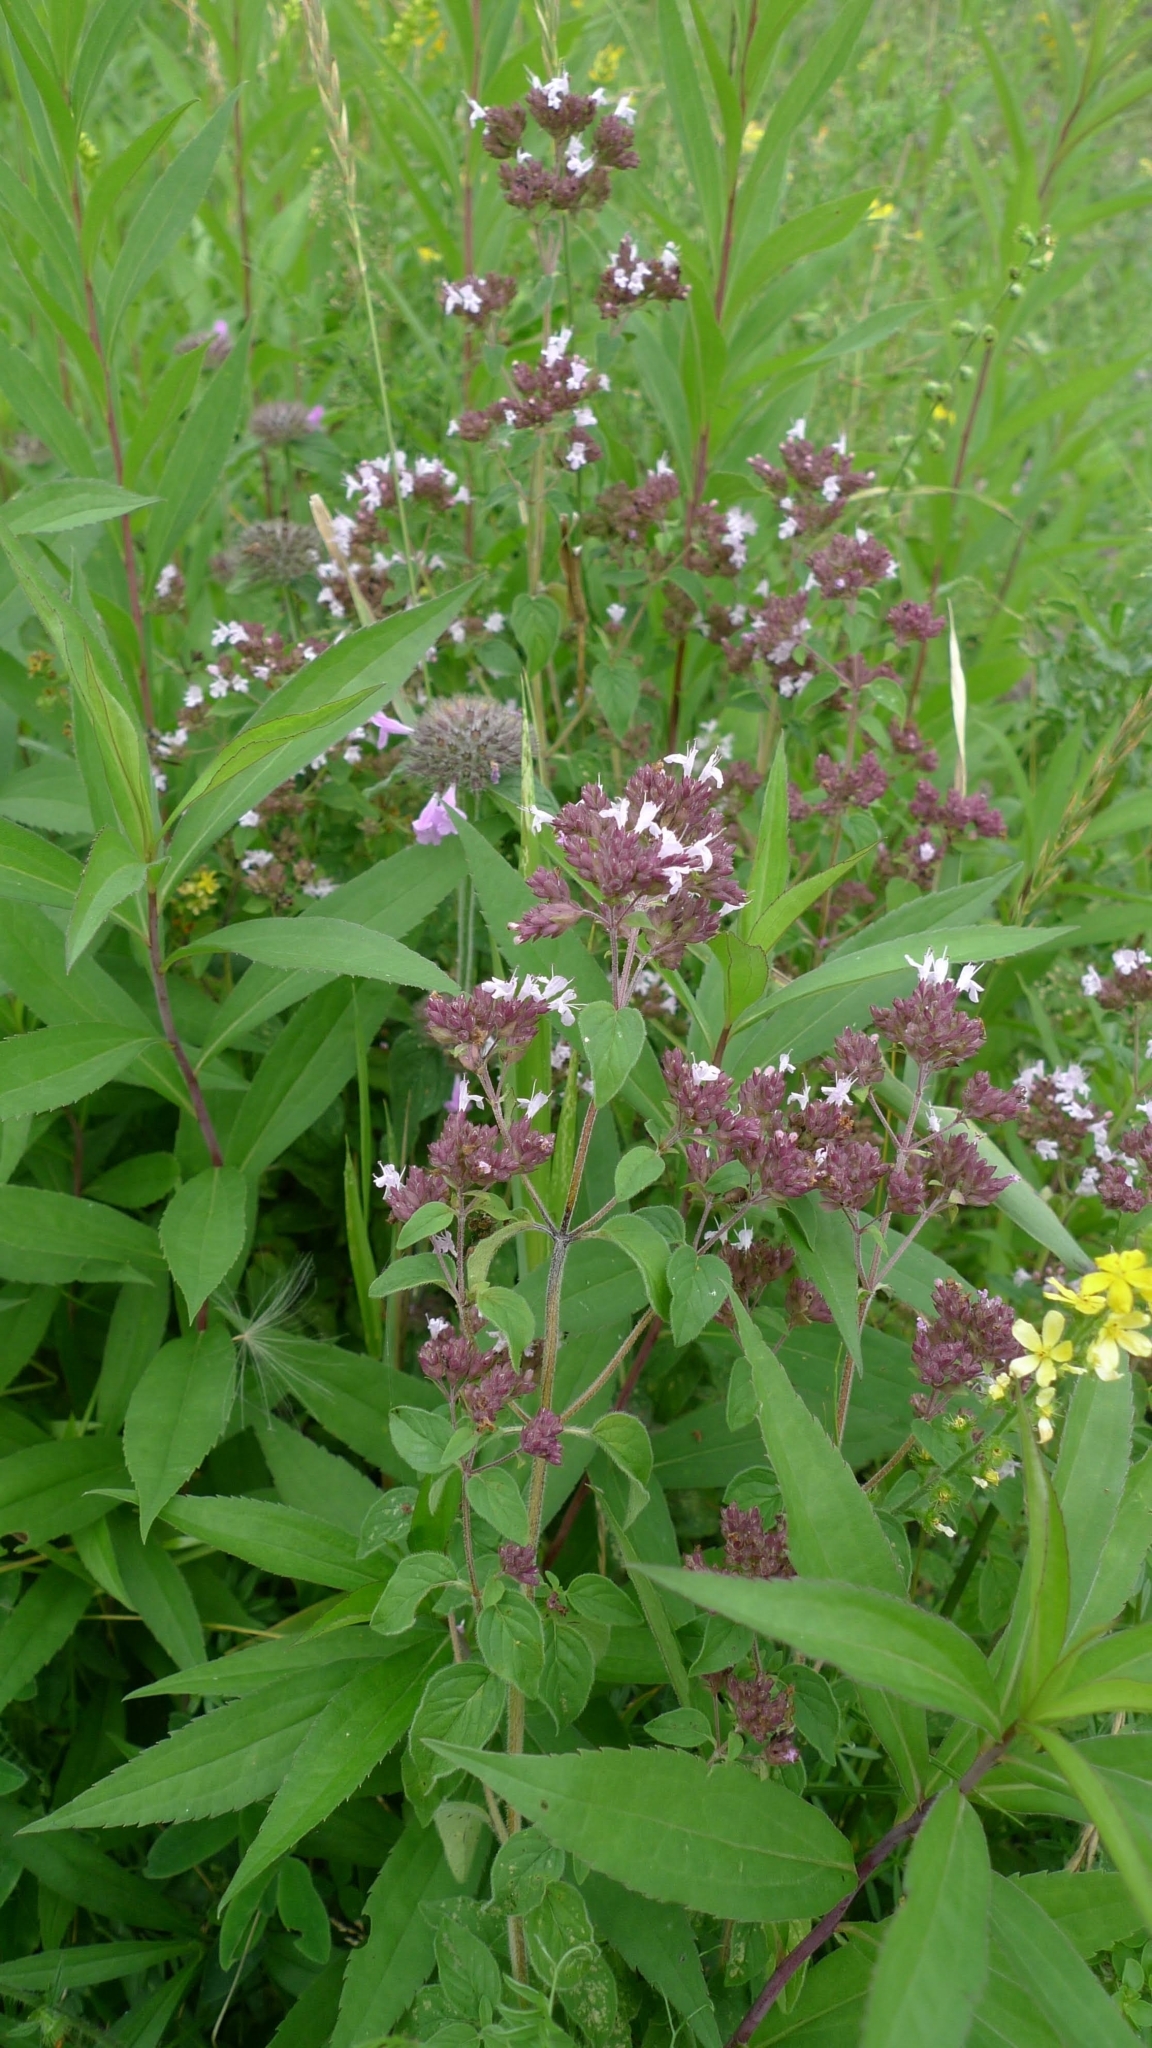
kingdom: Plantae
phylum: Tracheophyta
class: Magnoliopsida
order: Lamiales
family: Lamiaceae
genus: Origanum
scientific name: Origanum vulgare
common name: Wild marjoram
